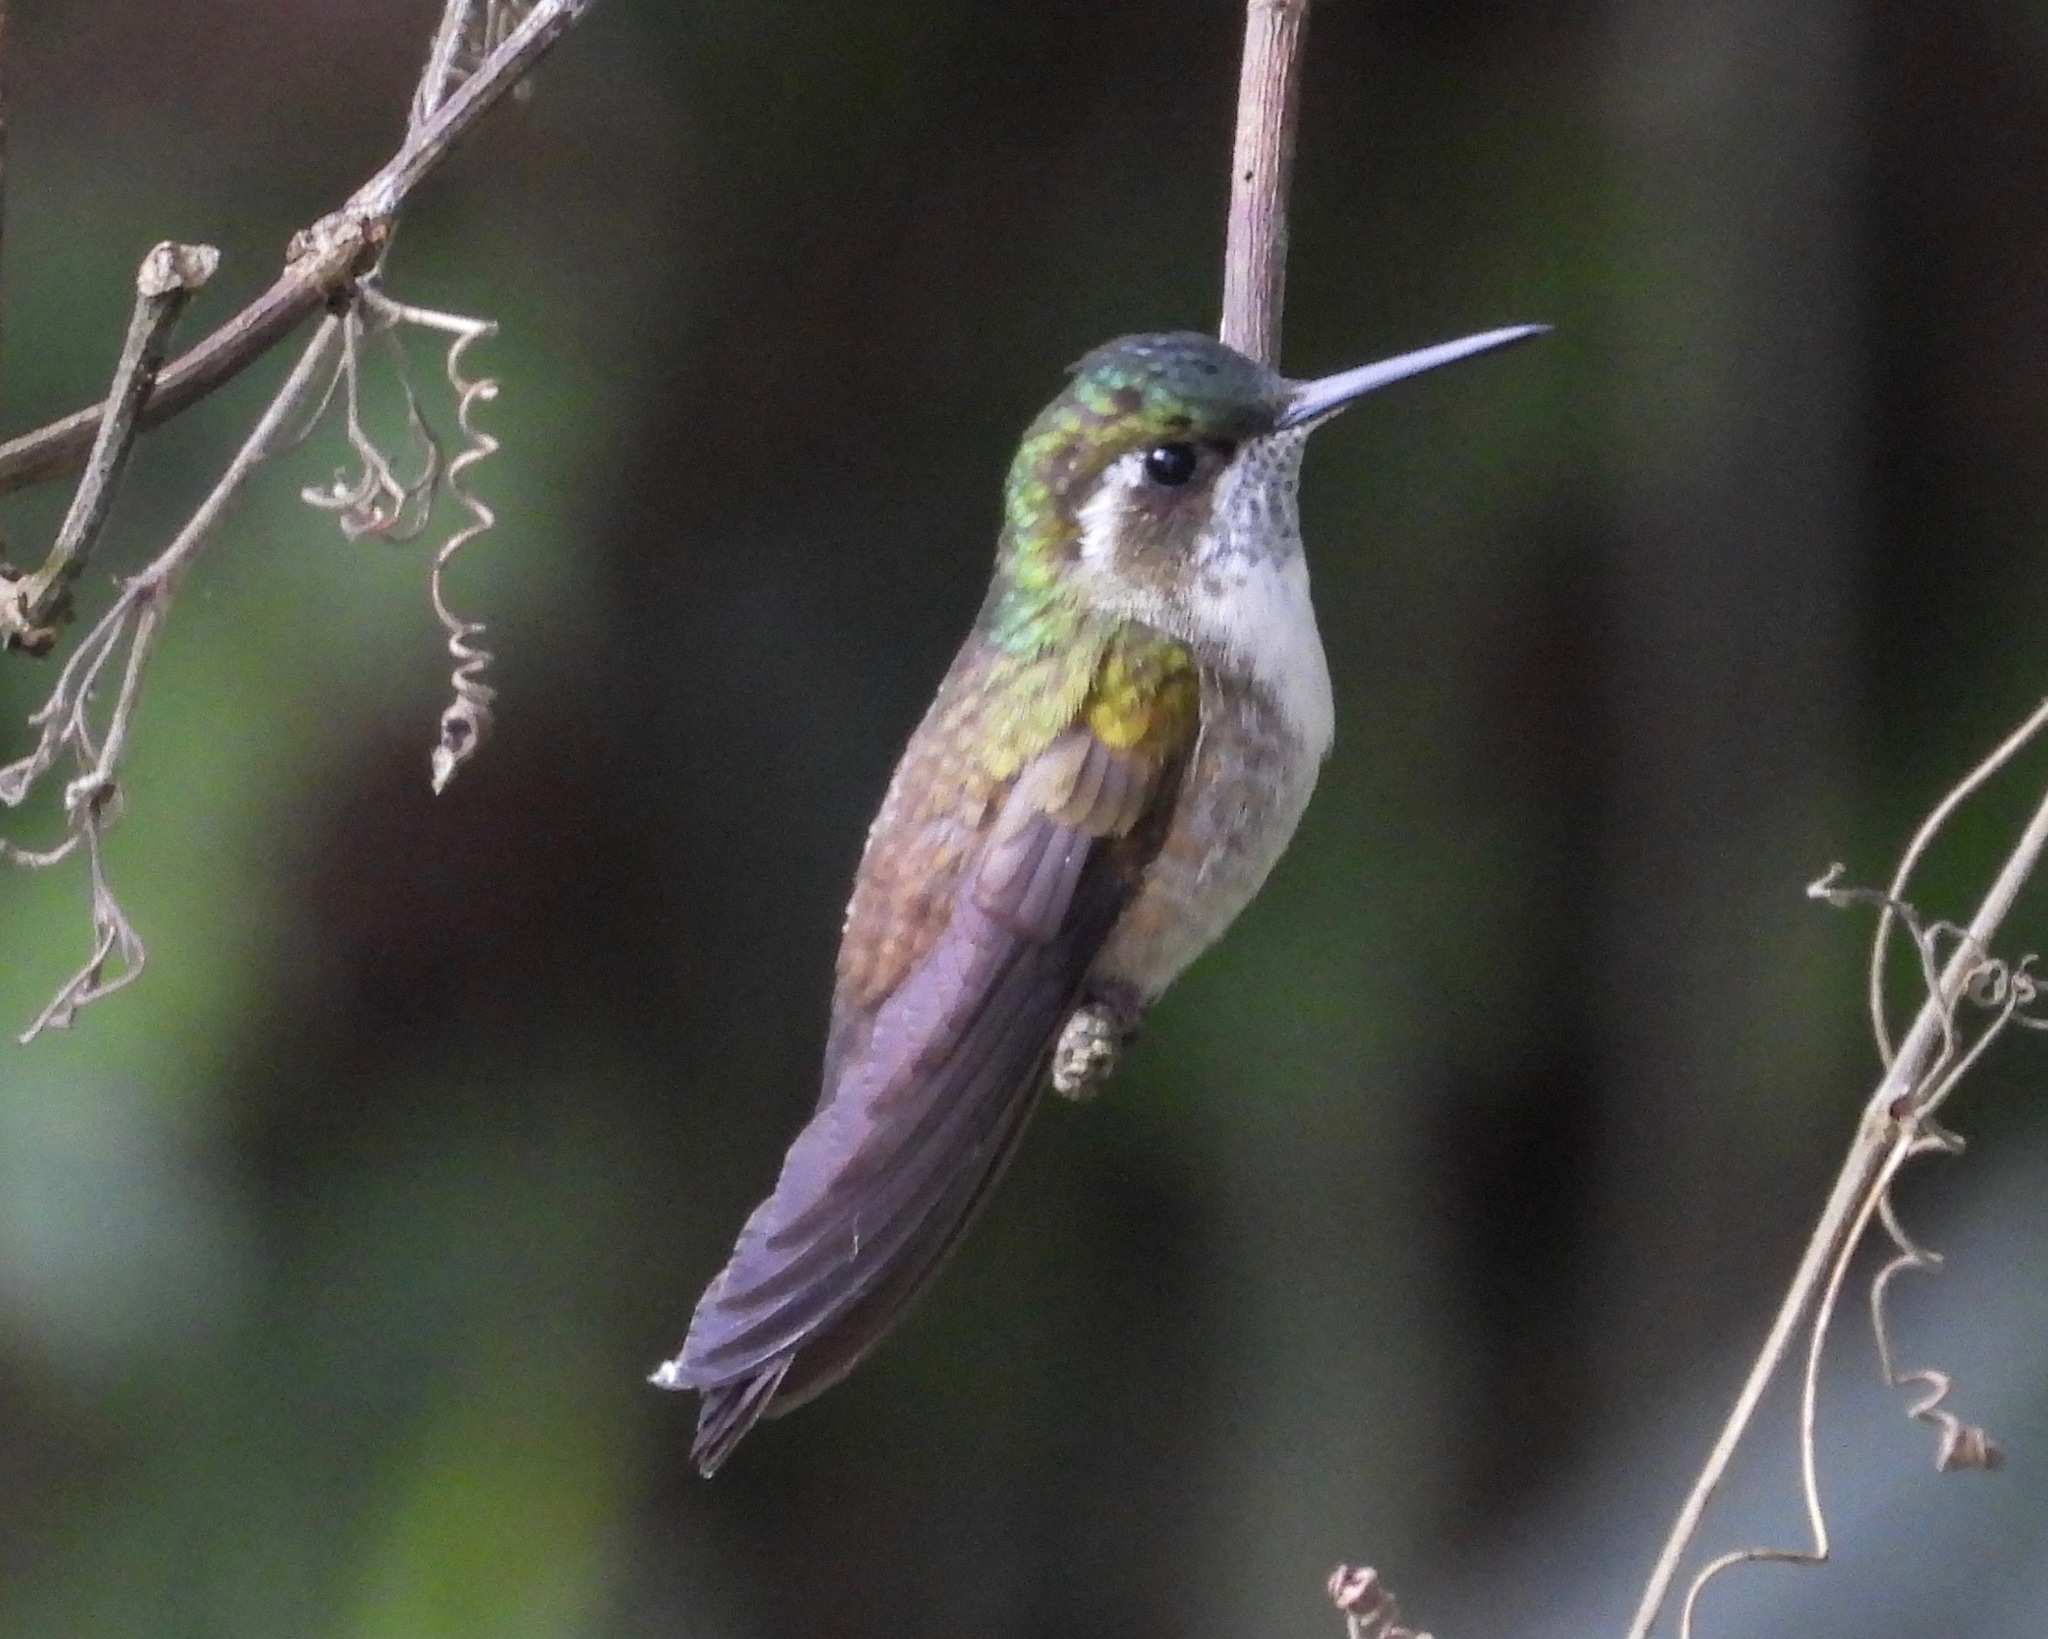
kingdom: Animalia
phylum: Chordata
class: Aves
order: Apodiformes
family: Trochilidae
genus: Lampornis
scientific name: Lampornis viridipallens
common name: Green-throated mountain-gem
